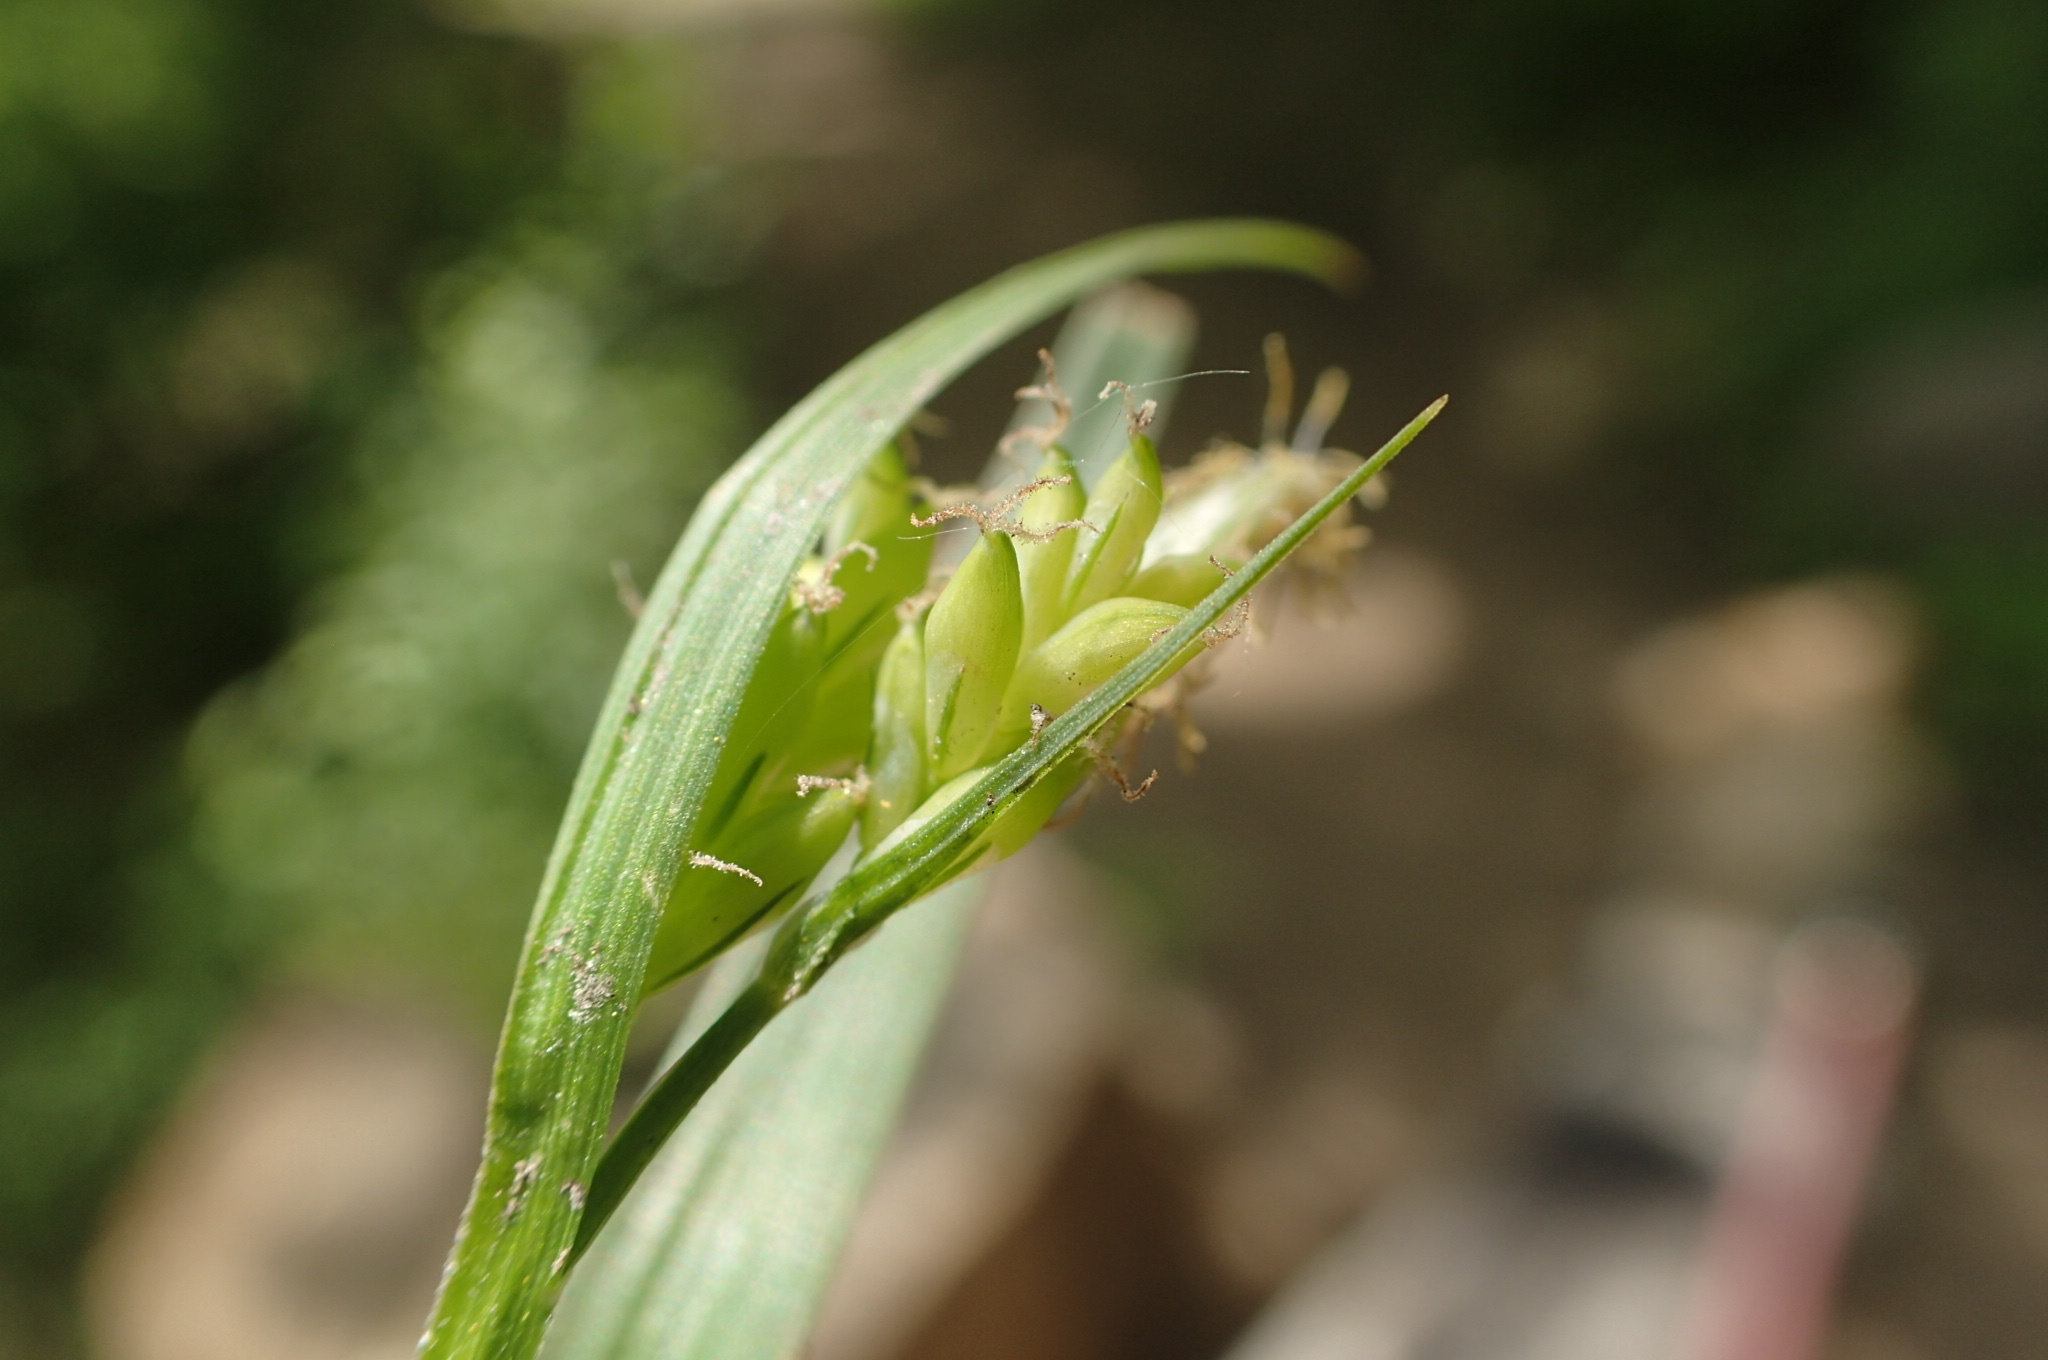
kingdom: Plantae
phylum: Tracheophyta
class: Liliopsida
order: Poales
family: Cyperaceae
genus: Carex
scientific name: Carex blanda
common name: Bland sedge
